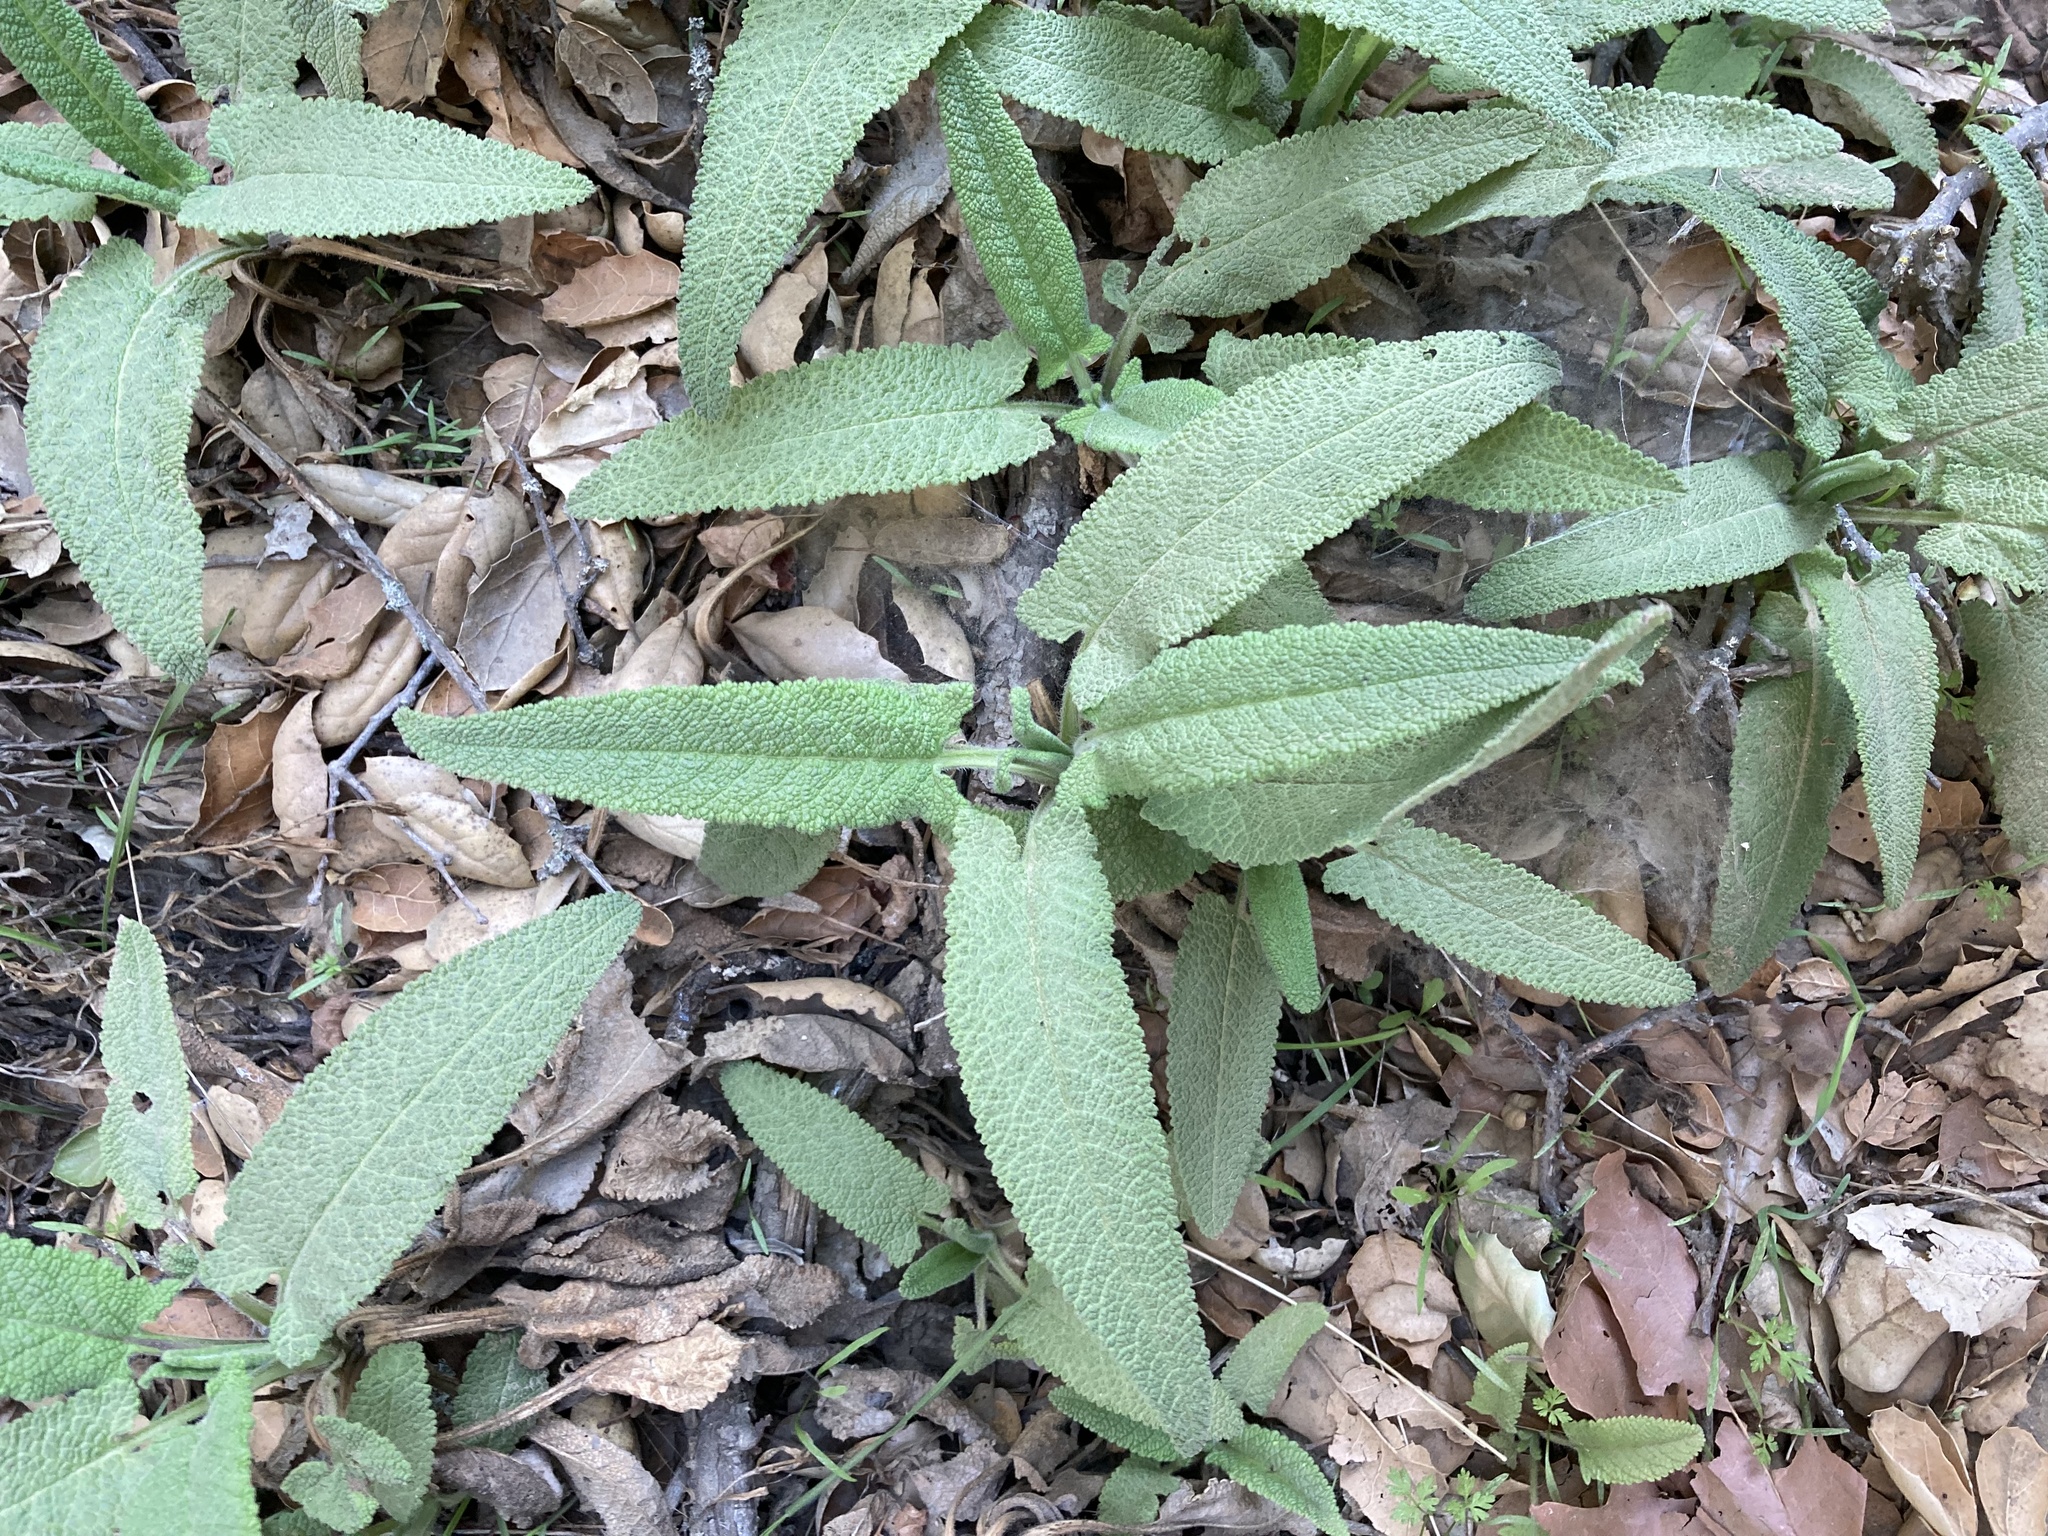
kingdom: Plantae
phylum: Tracheophyta
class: Magnoliopsida
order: Lamiales
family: Lamiaceae
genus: Salvia
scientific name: Salvia spathacea
